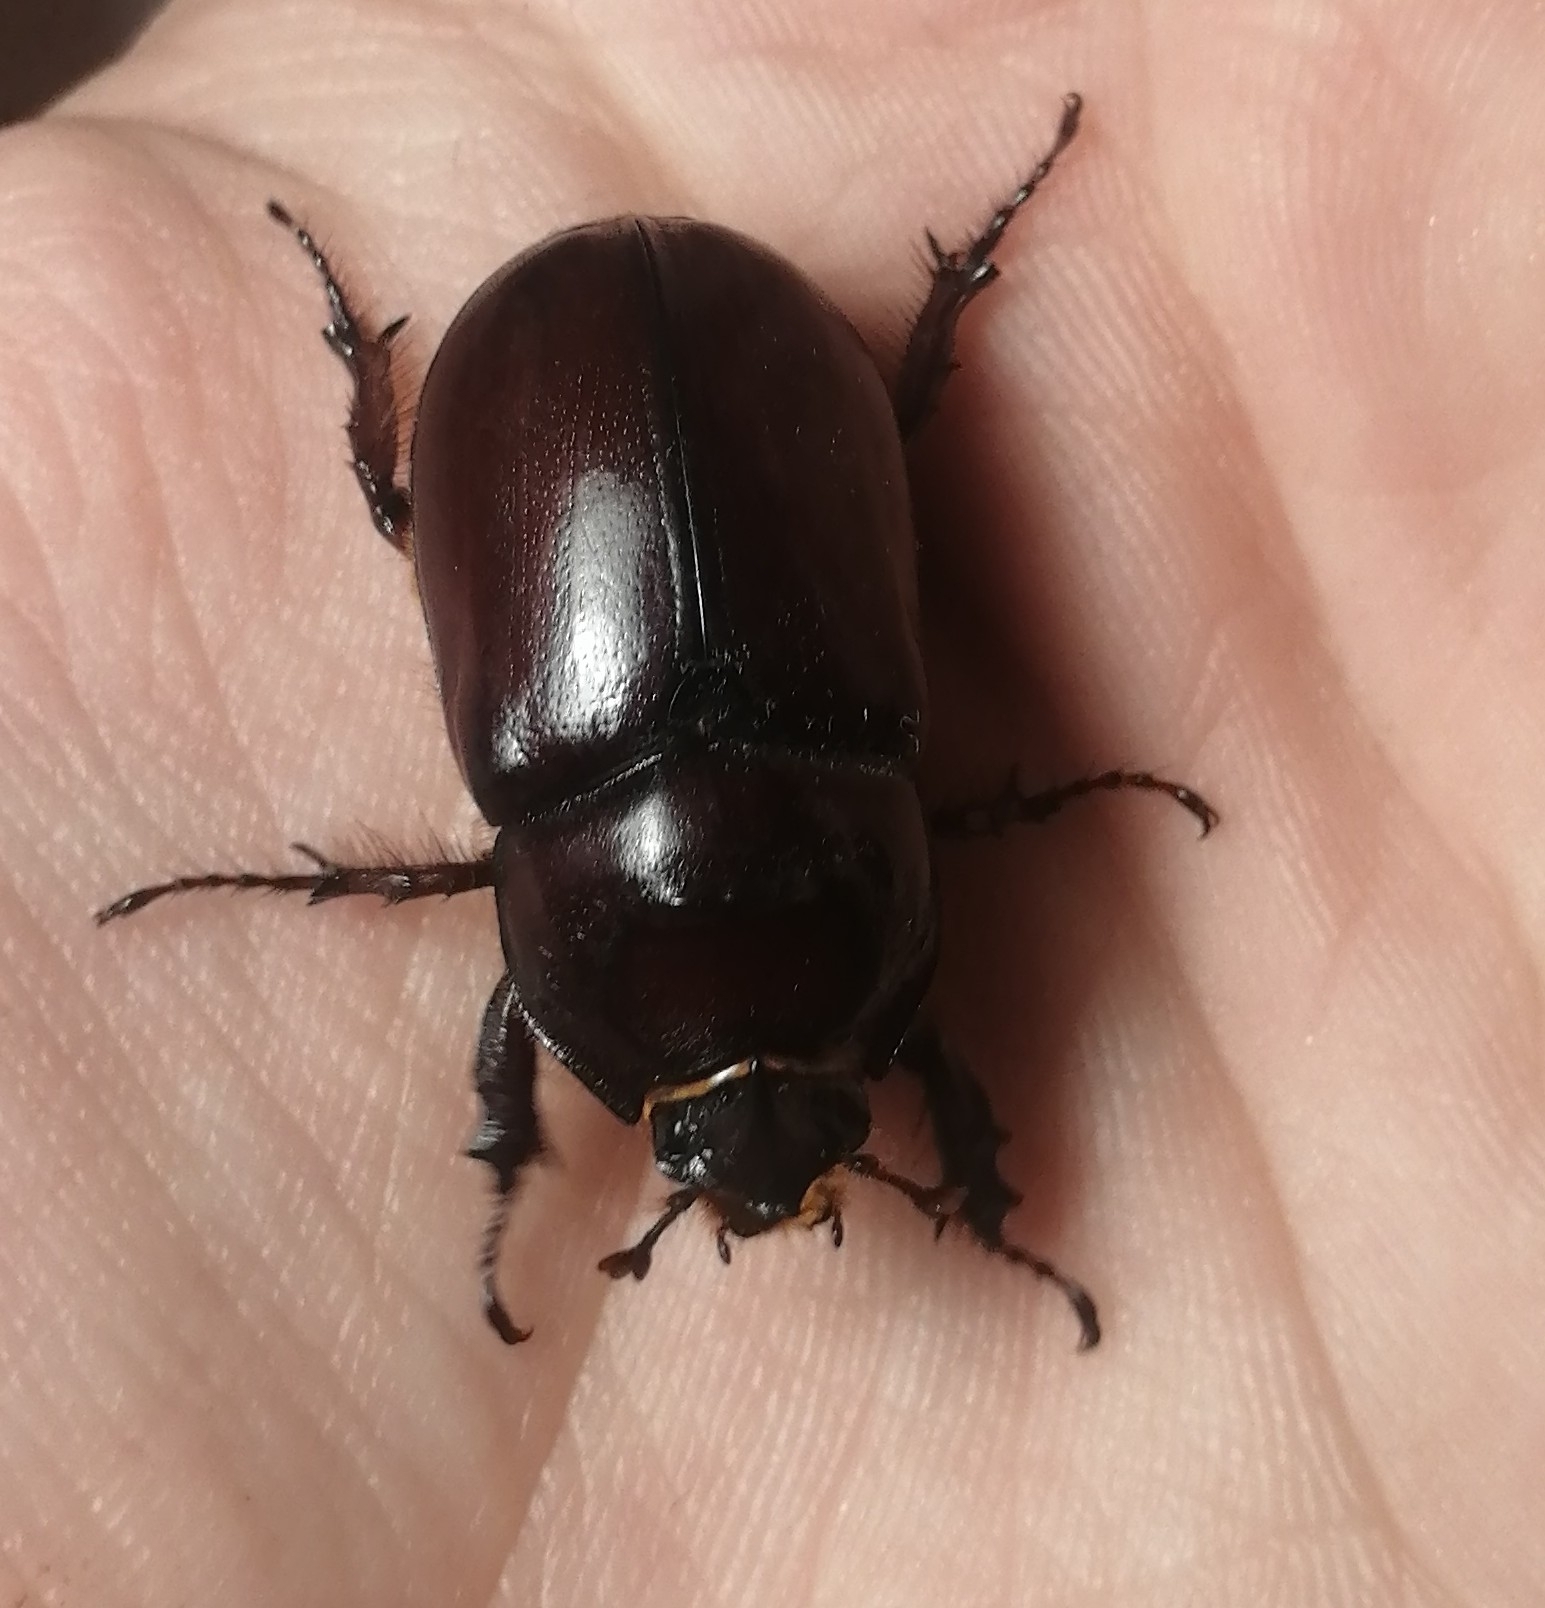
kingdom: Animalia
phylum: Arthropoda
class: Insecta
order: Coleoptera
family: Scarabaeidae
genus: Oryctes
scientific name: Oryctes nasicornis
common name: European rhinoceros beetle
